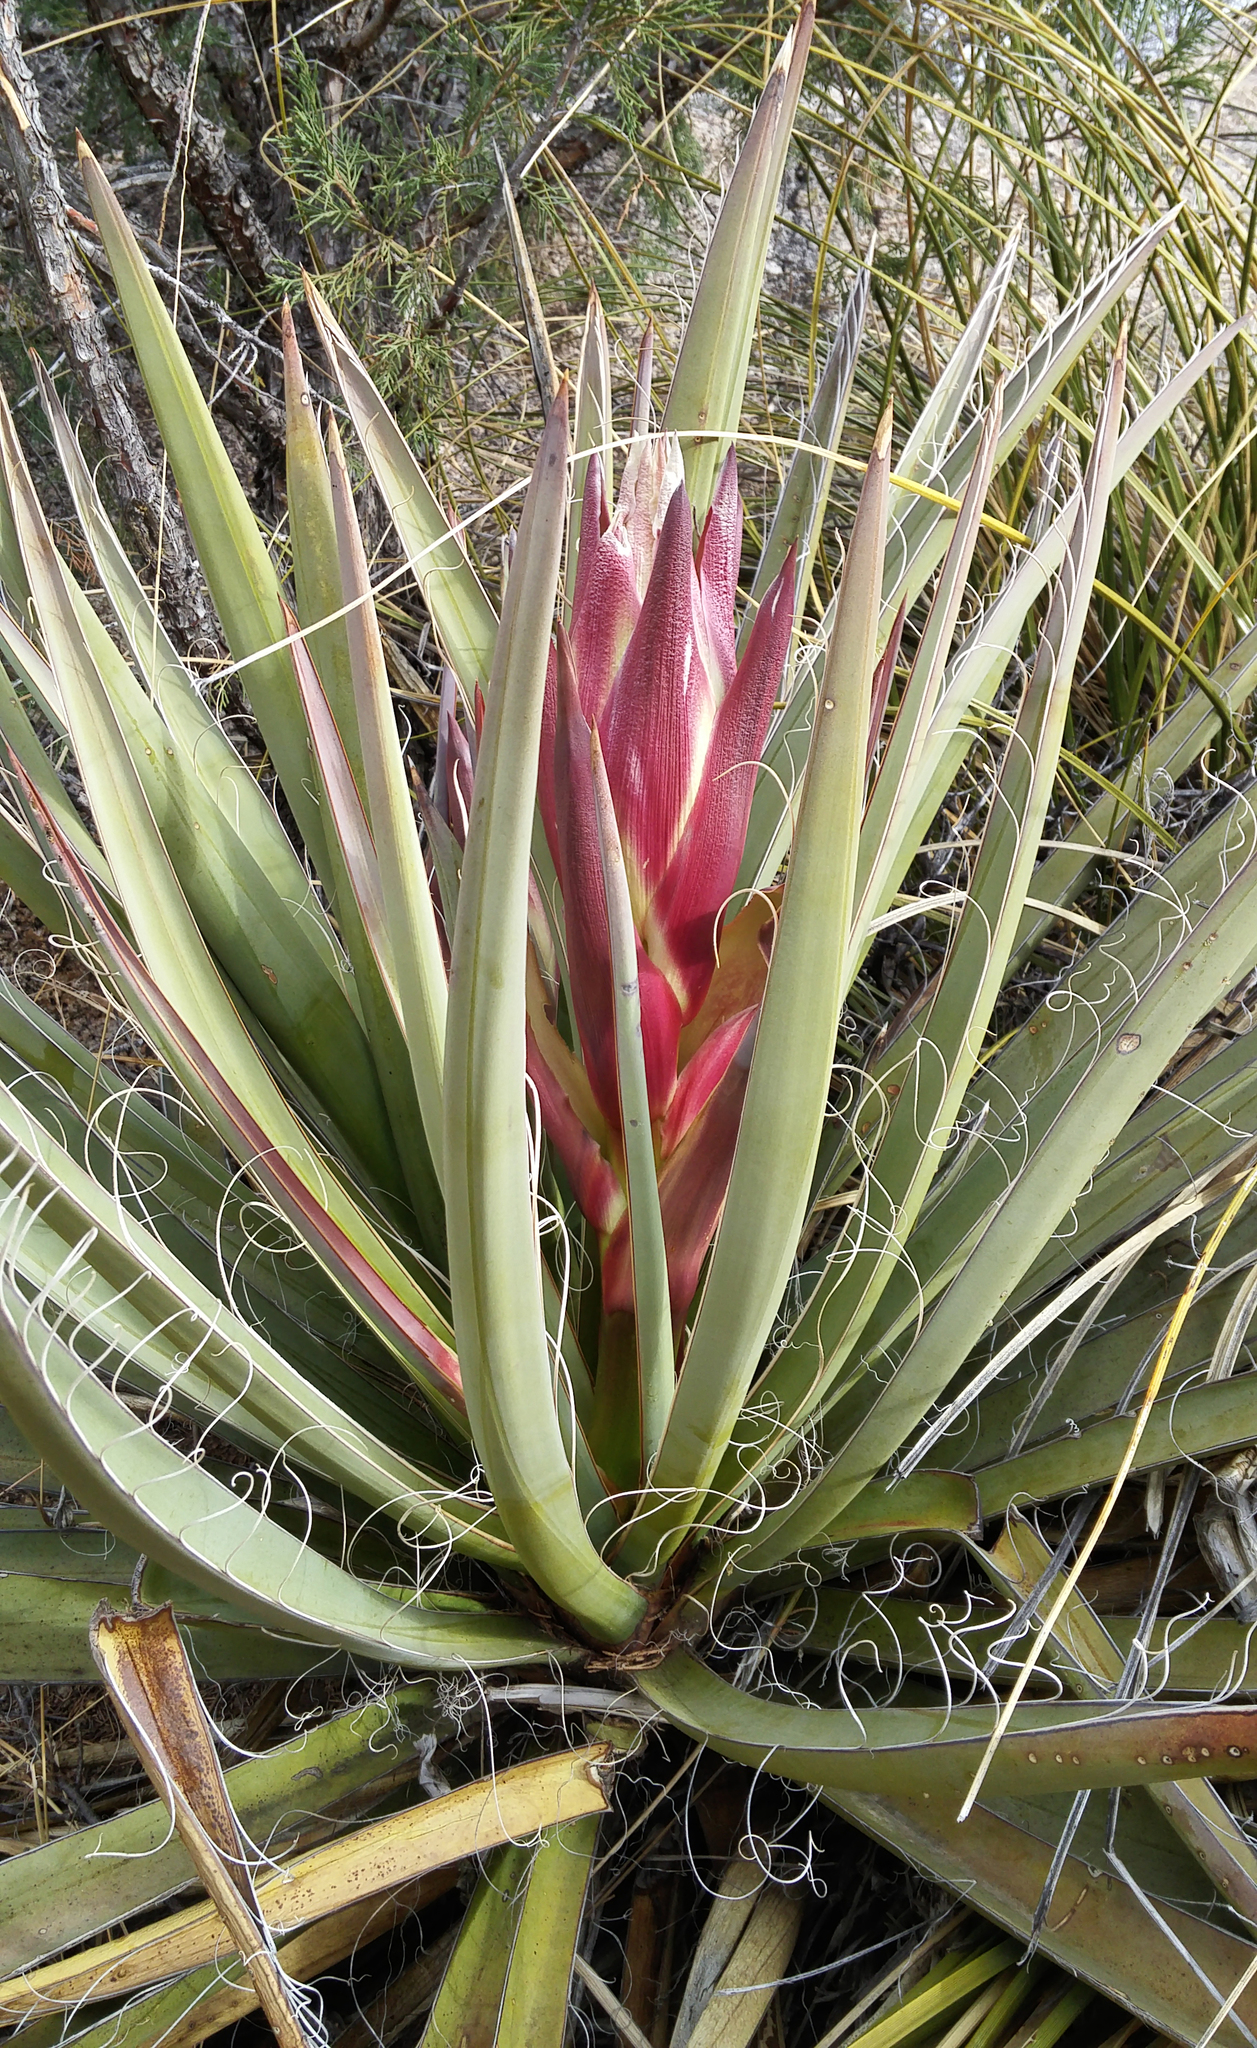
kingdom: Plantae
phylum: Tracheophyta
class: Liliopsida
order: Asparagales
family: Asparagaceae
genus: Yucca
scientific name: Yucca baccata
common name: Banana yucca
